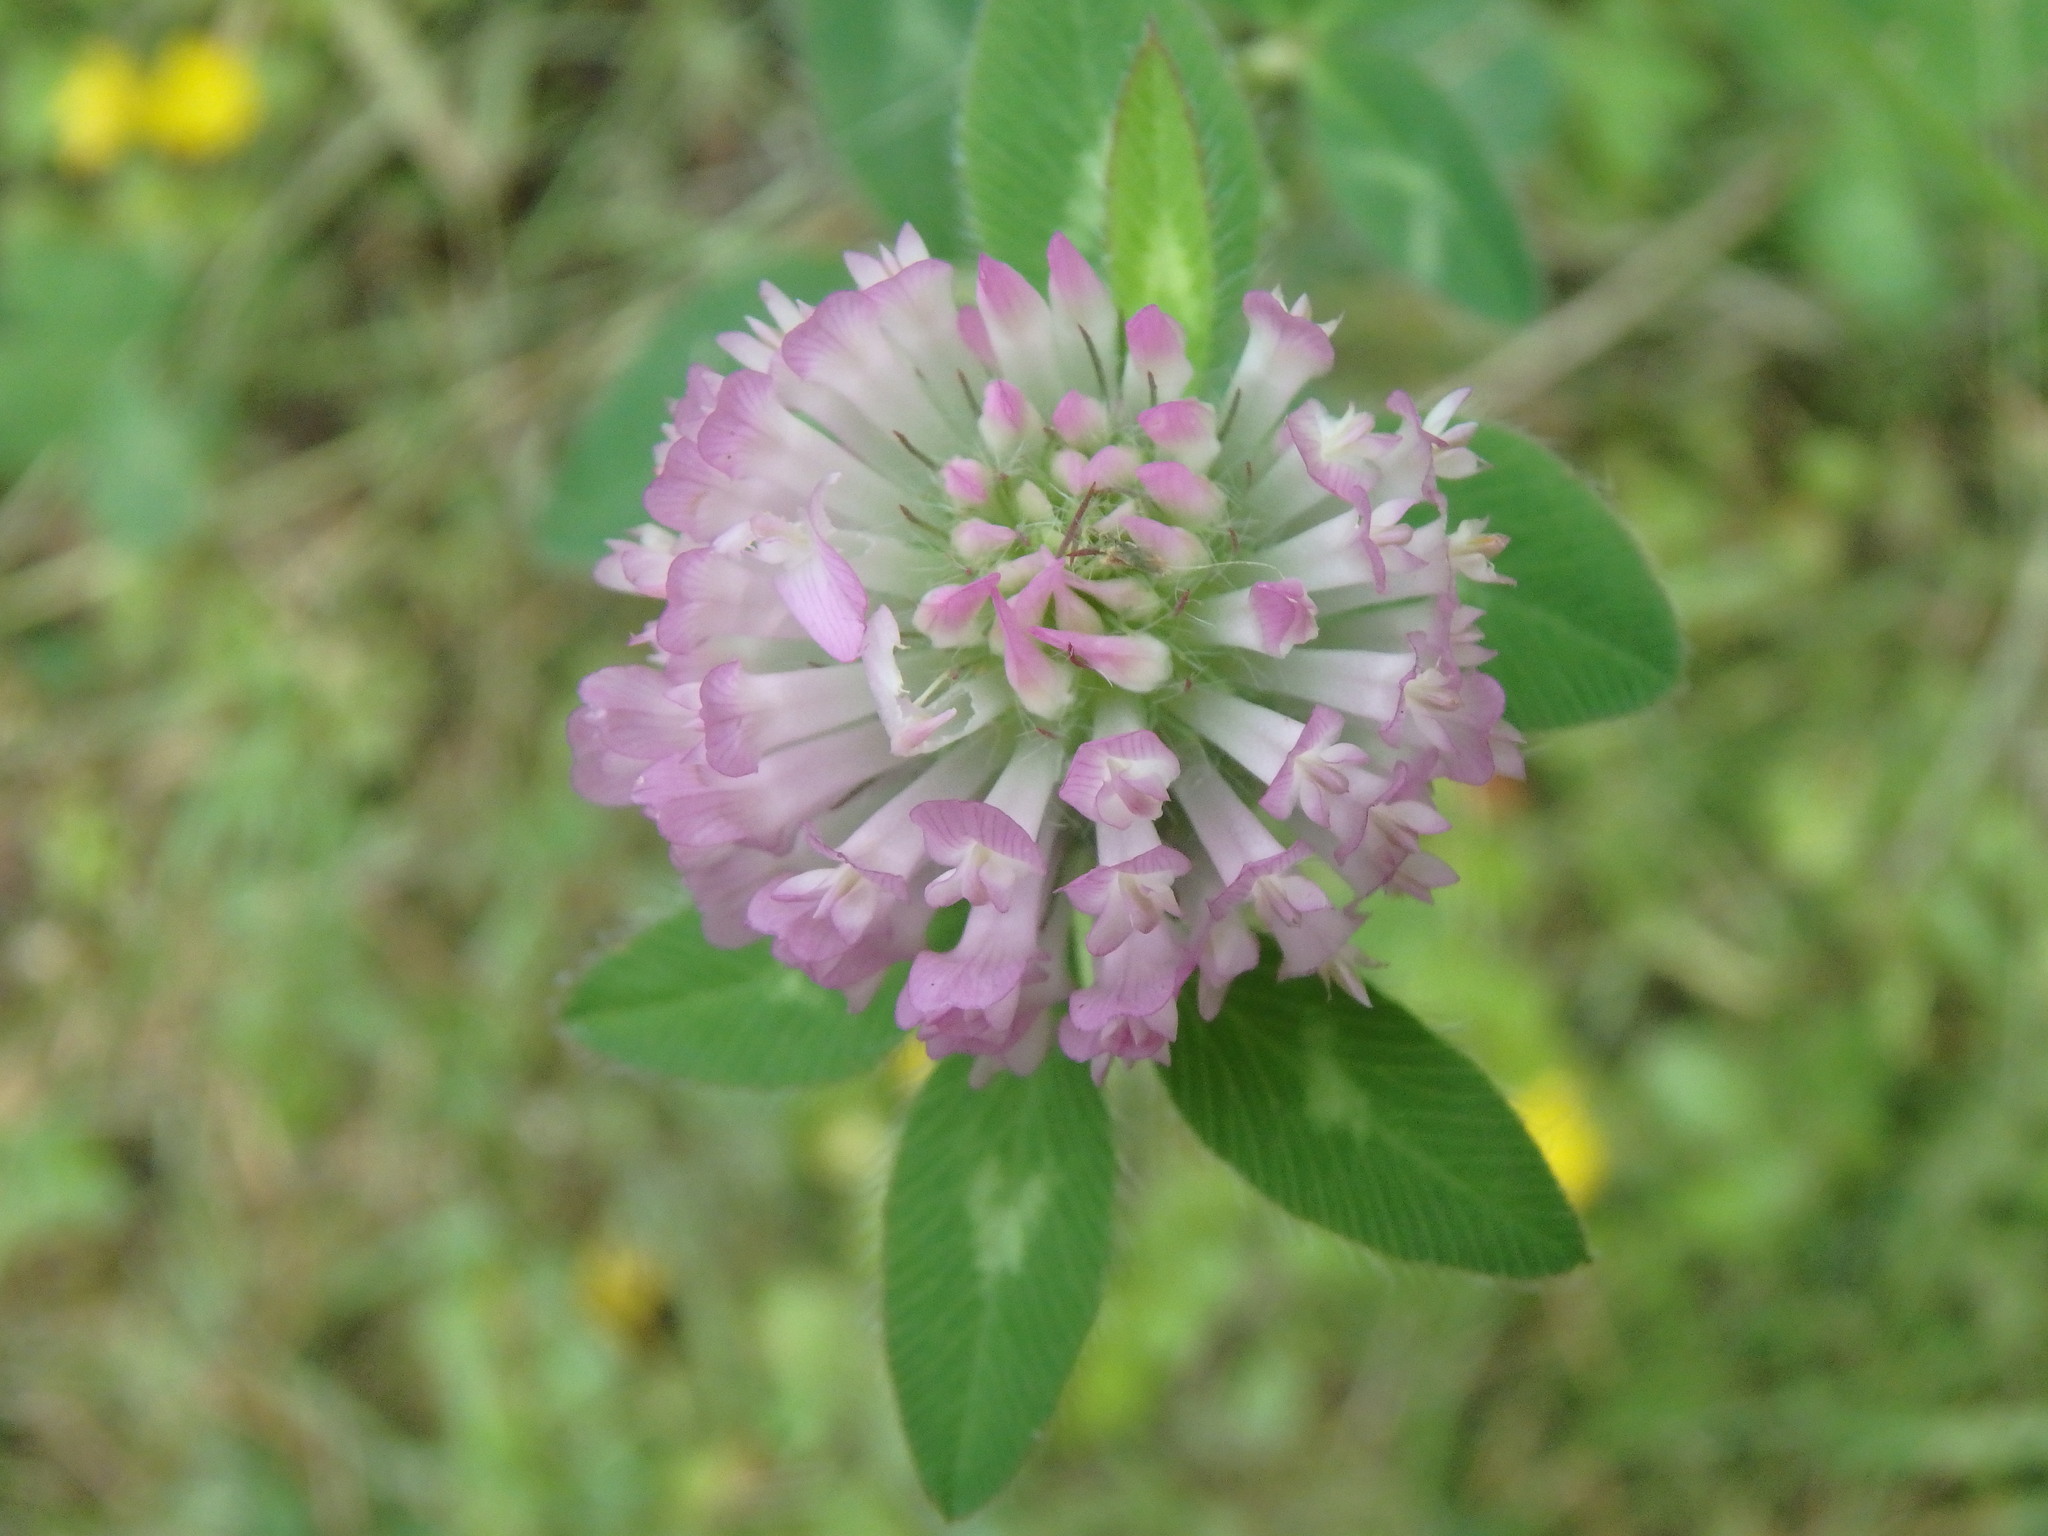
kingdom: Plantae
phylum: Tracheophyta
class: Magnoliopsida
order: Fabales
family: Fabaceae
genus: Trifolium
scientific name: Trifolium pratense
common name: Red clover
